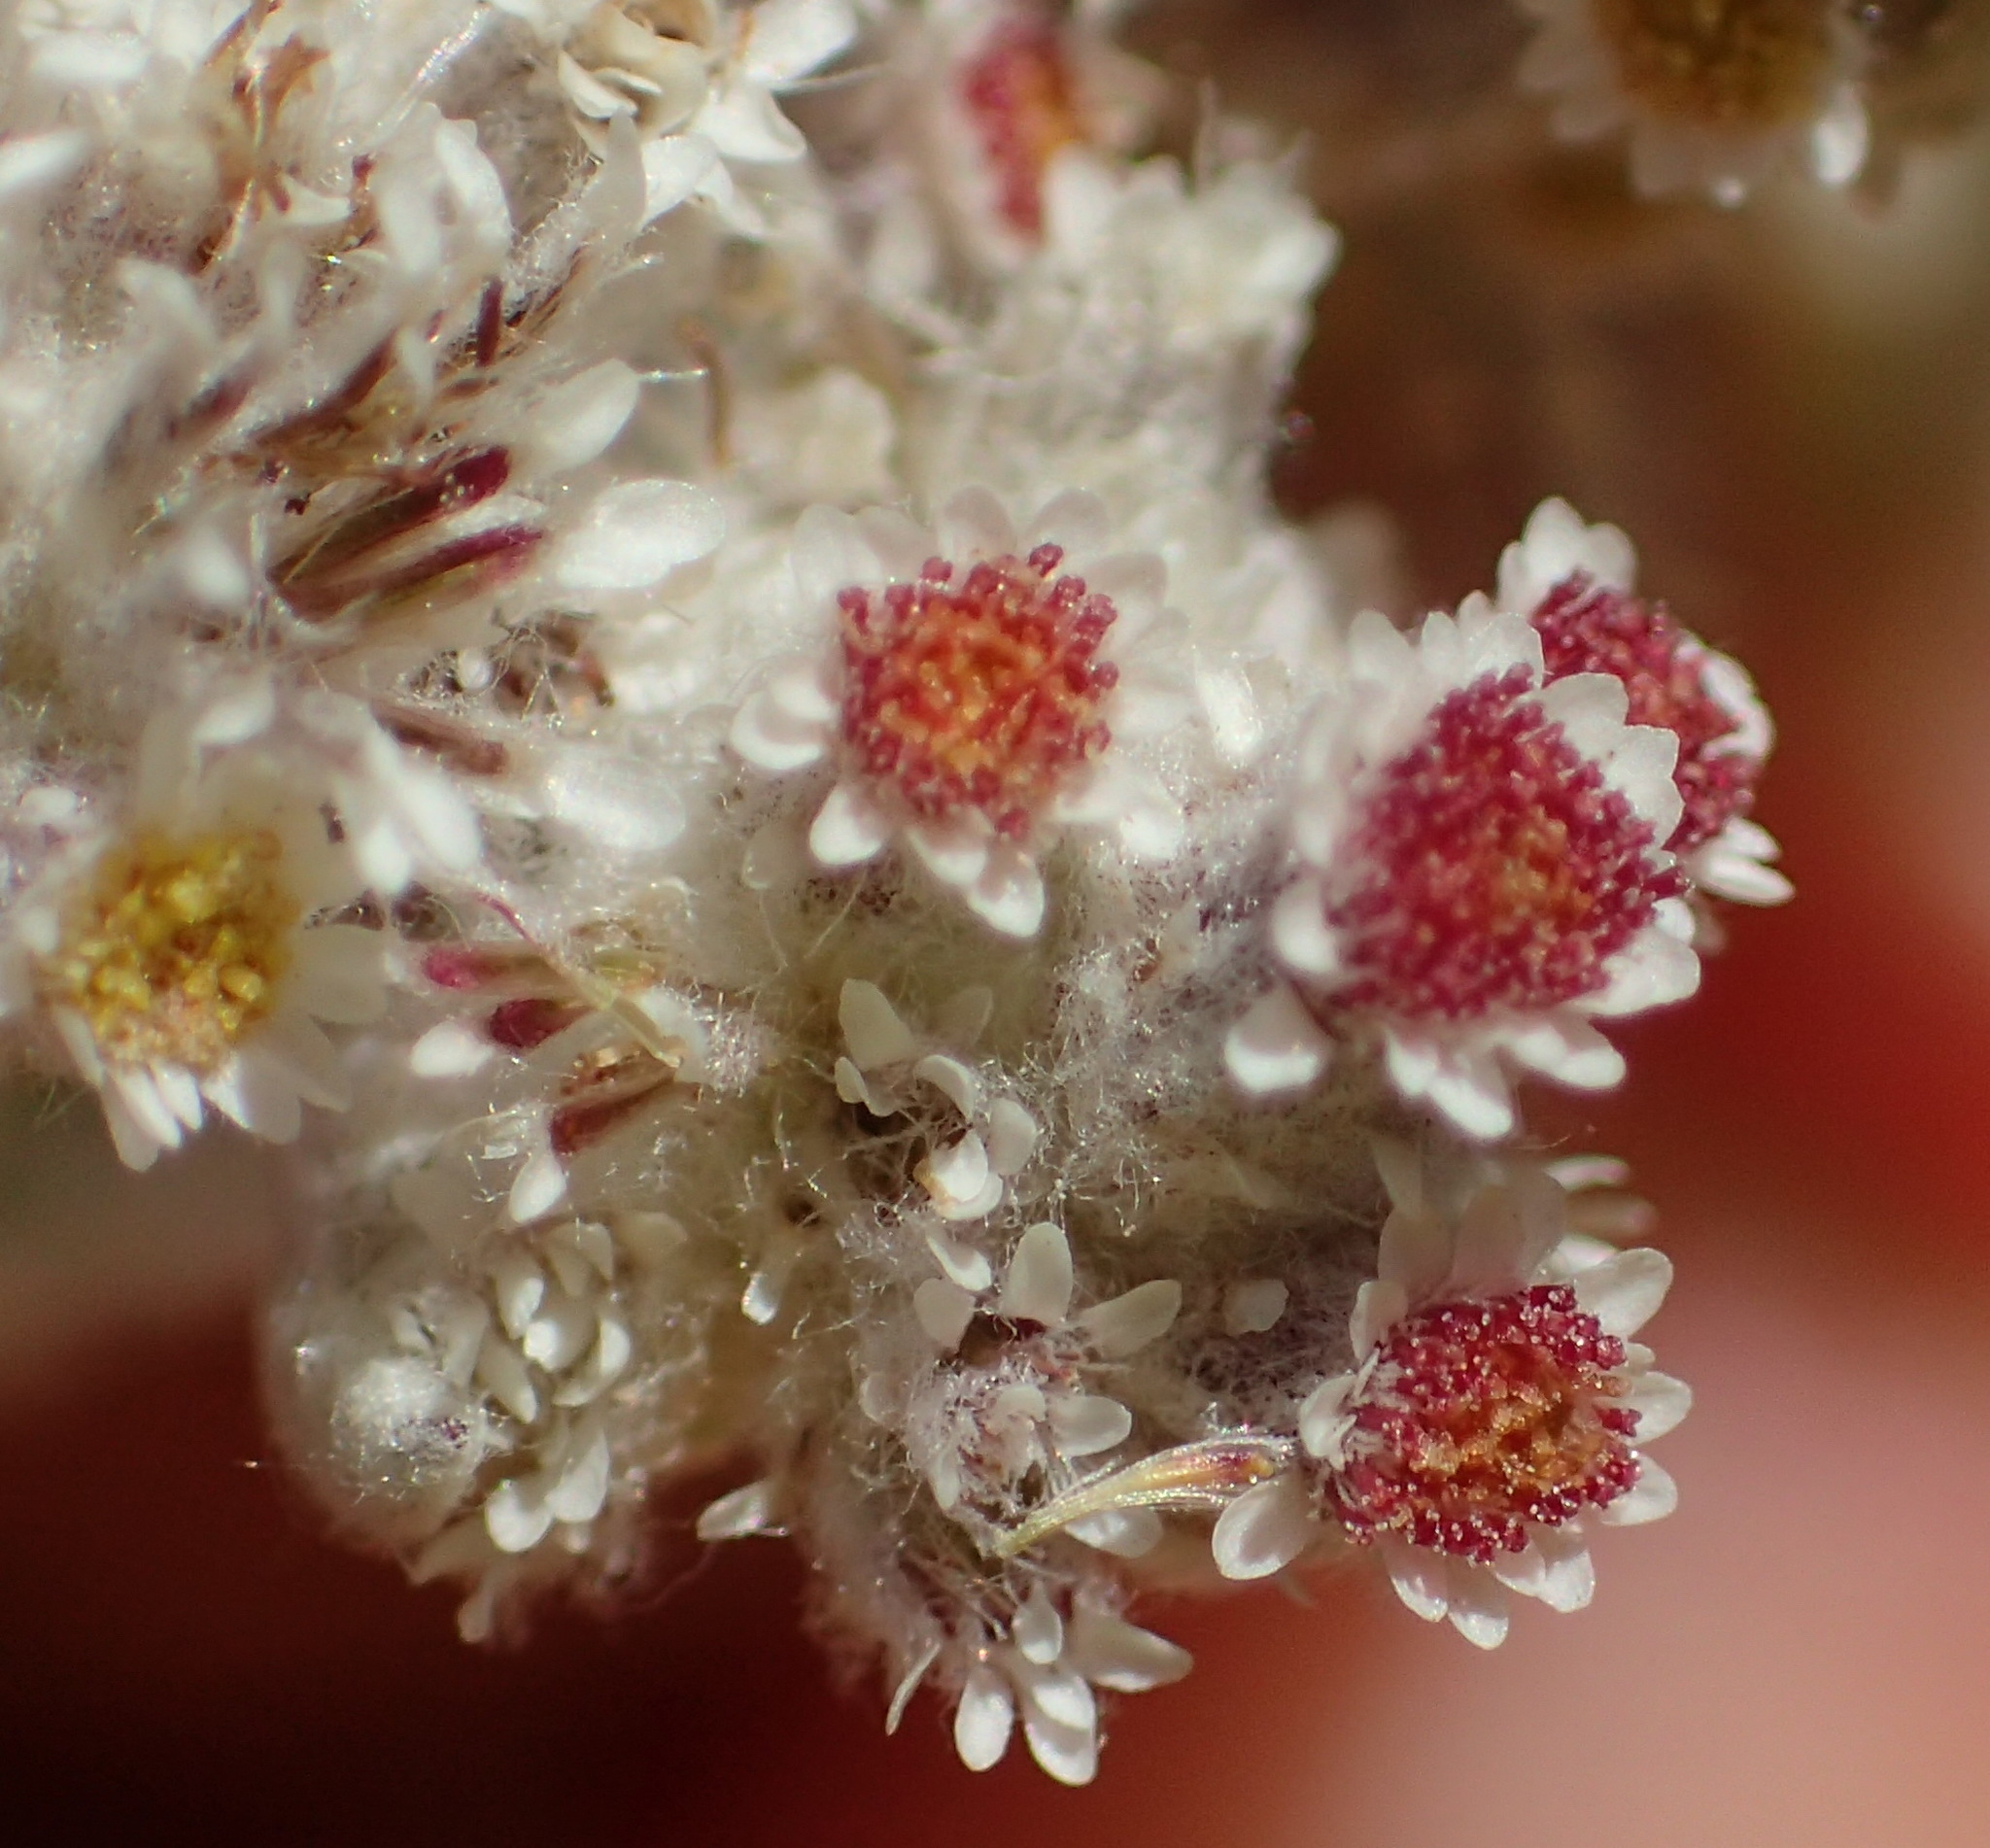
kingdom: Plantae
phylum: Tracheophyta
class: Magnoliopsida
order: Asterales
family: Asteraceae
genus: Vellereophyton
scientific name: Vellereophyton dealbatum
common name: White-cudweed
